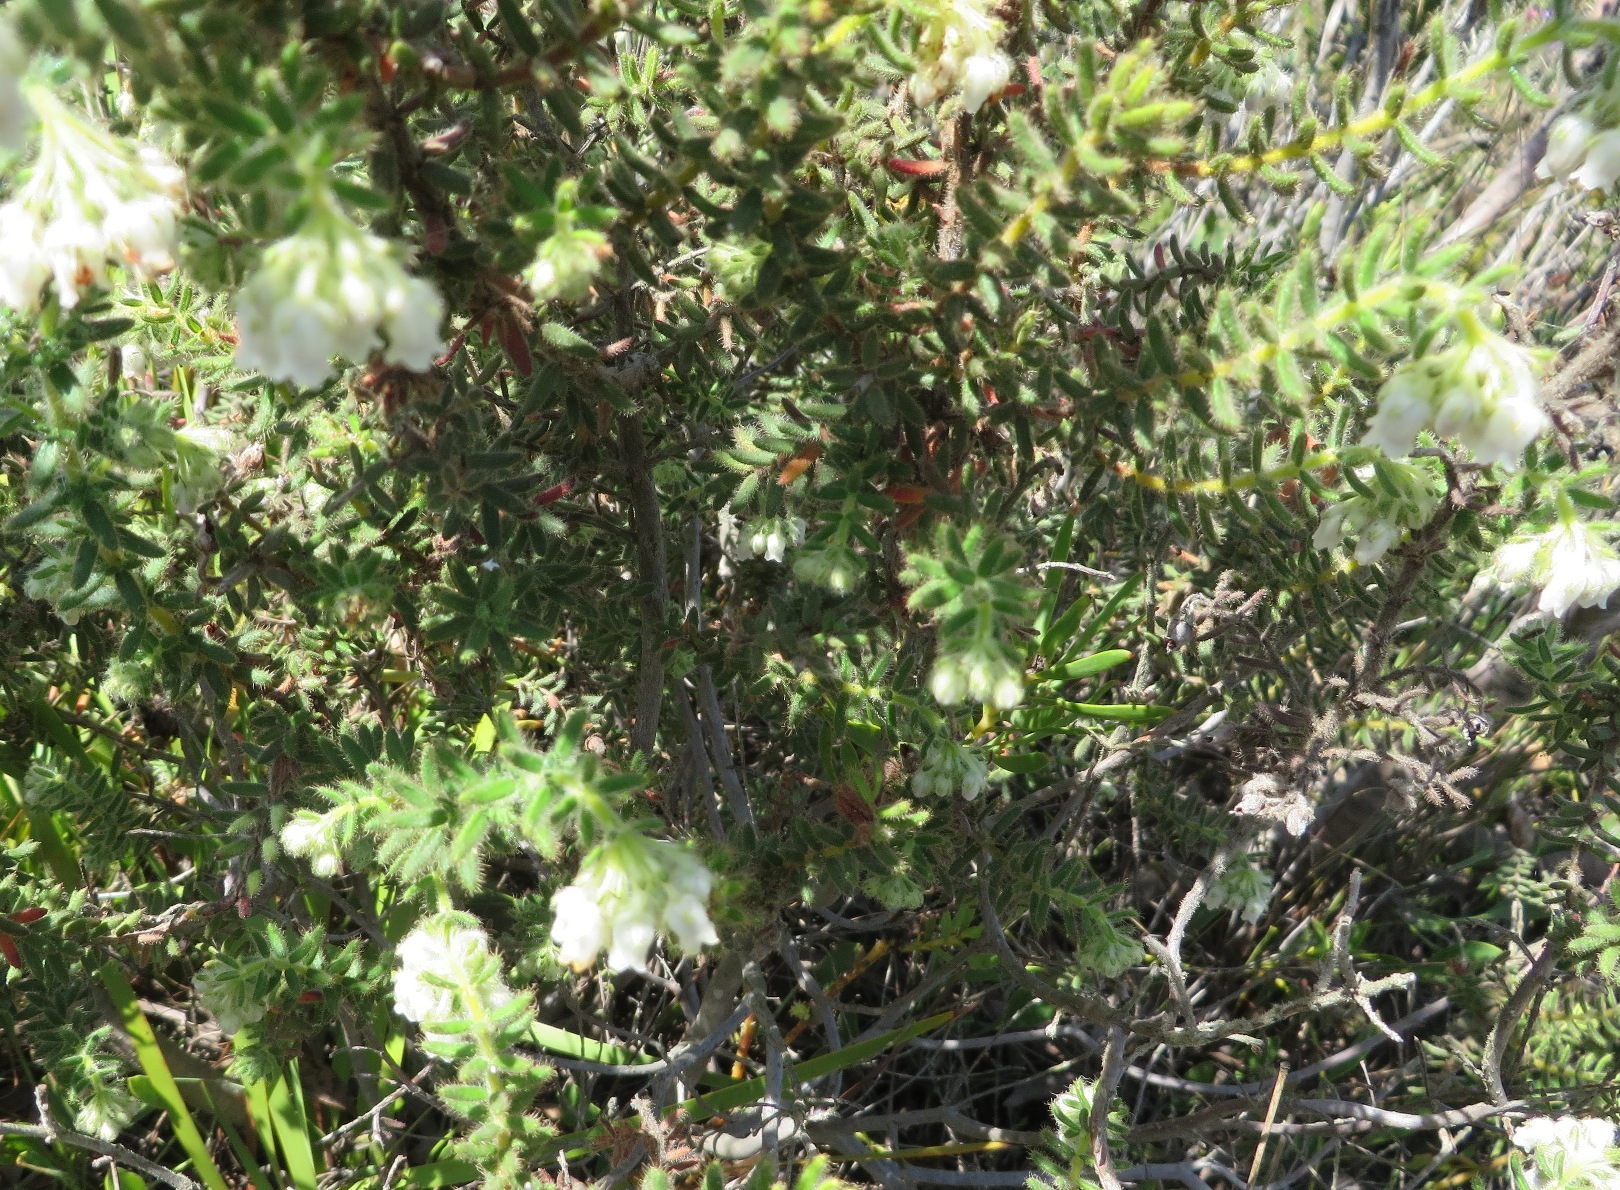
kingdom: Plantae
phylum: Tracheophyta
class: Magnoliopsida
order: Ericales
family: Ericaceae
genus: Erica
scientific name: Erica pannosa
